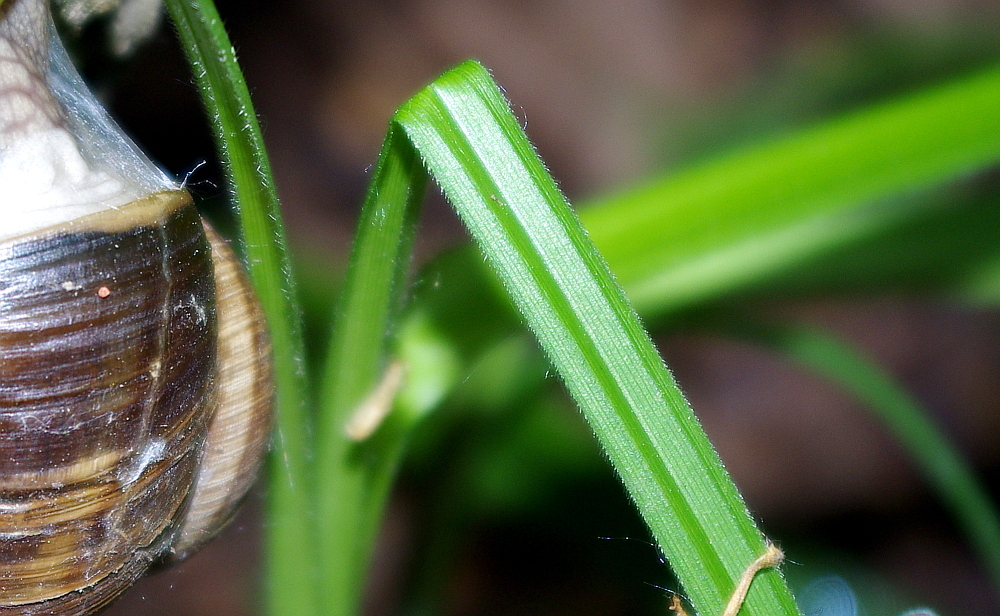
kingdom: Plantae
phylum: Tracheophyta
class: Liliopsida
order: Poales
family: Cyperaceae
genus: Carex
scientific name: Carex pilosa
